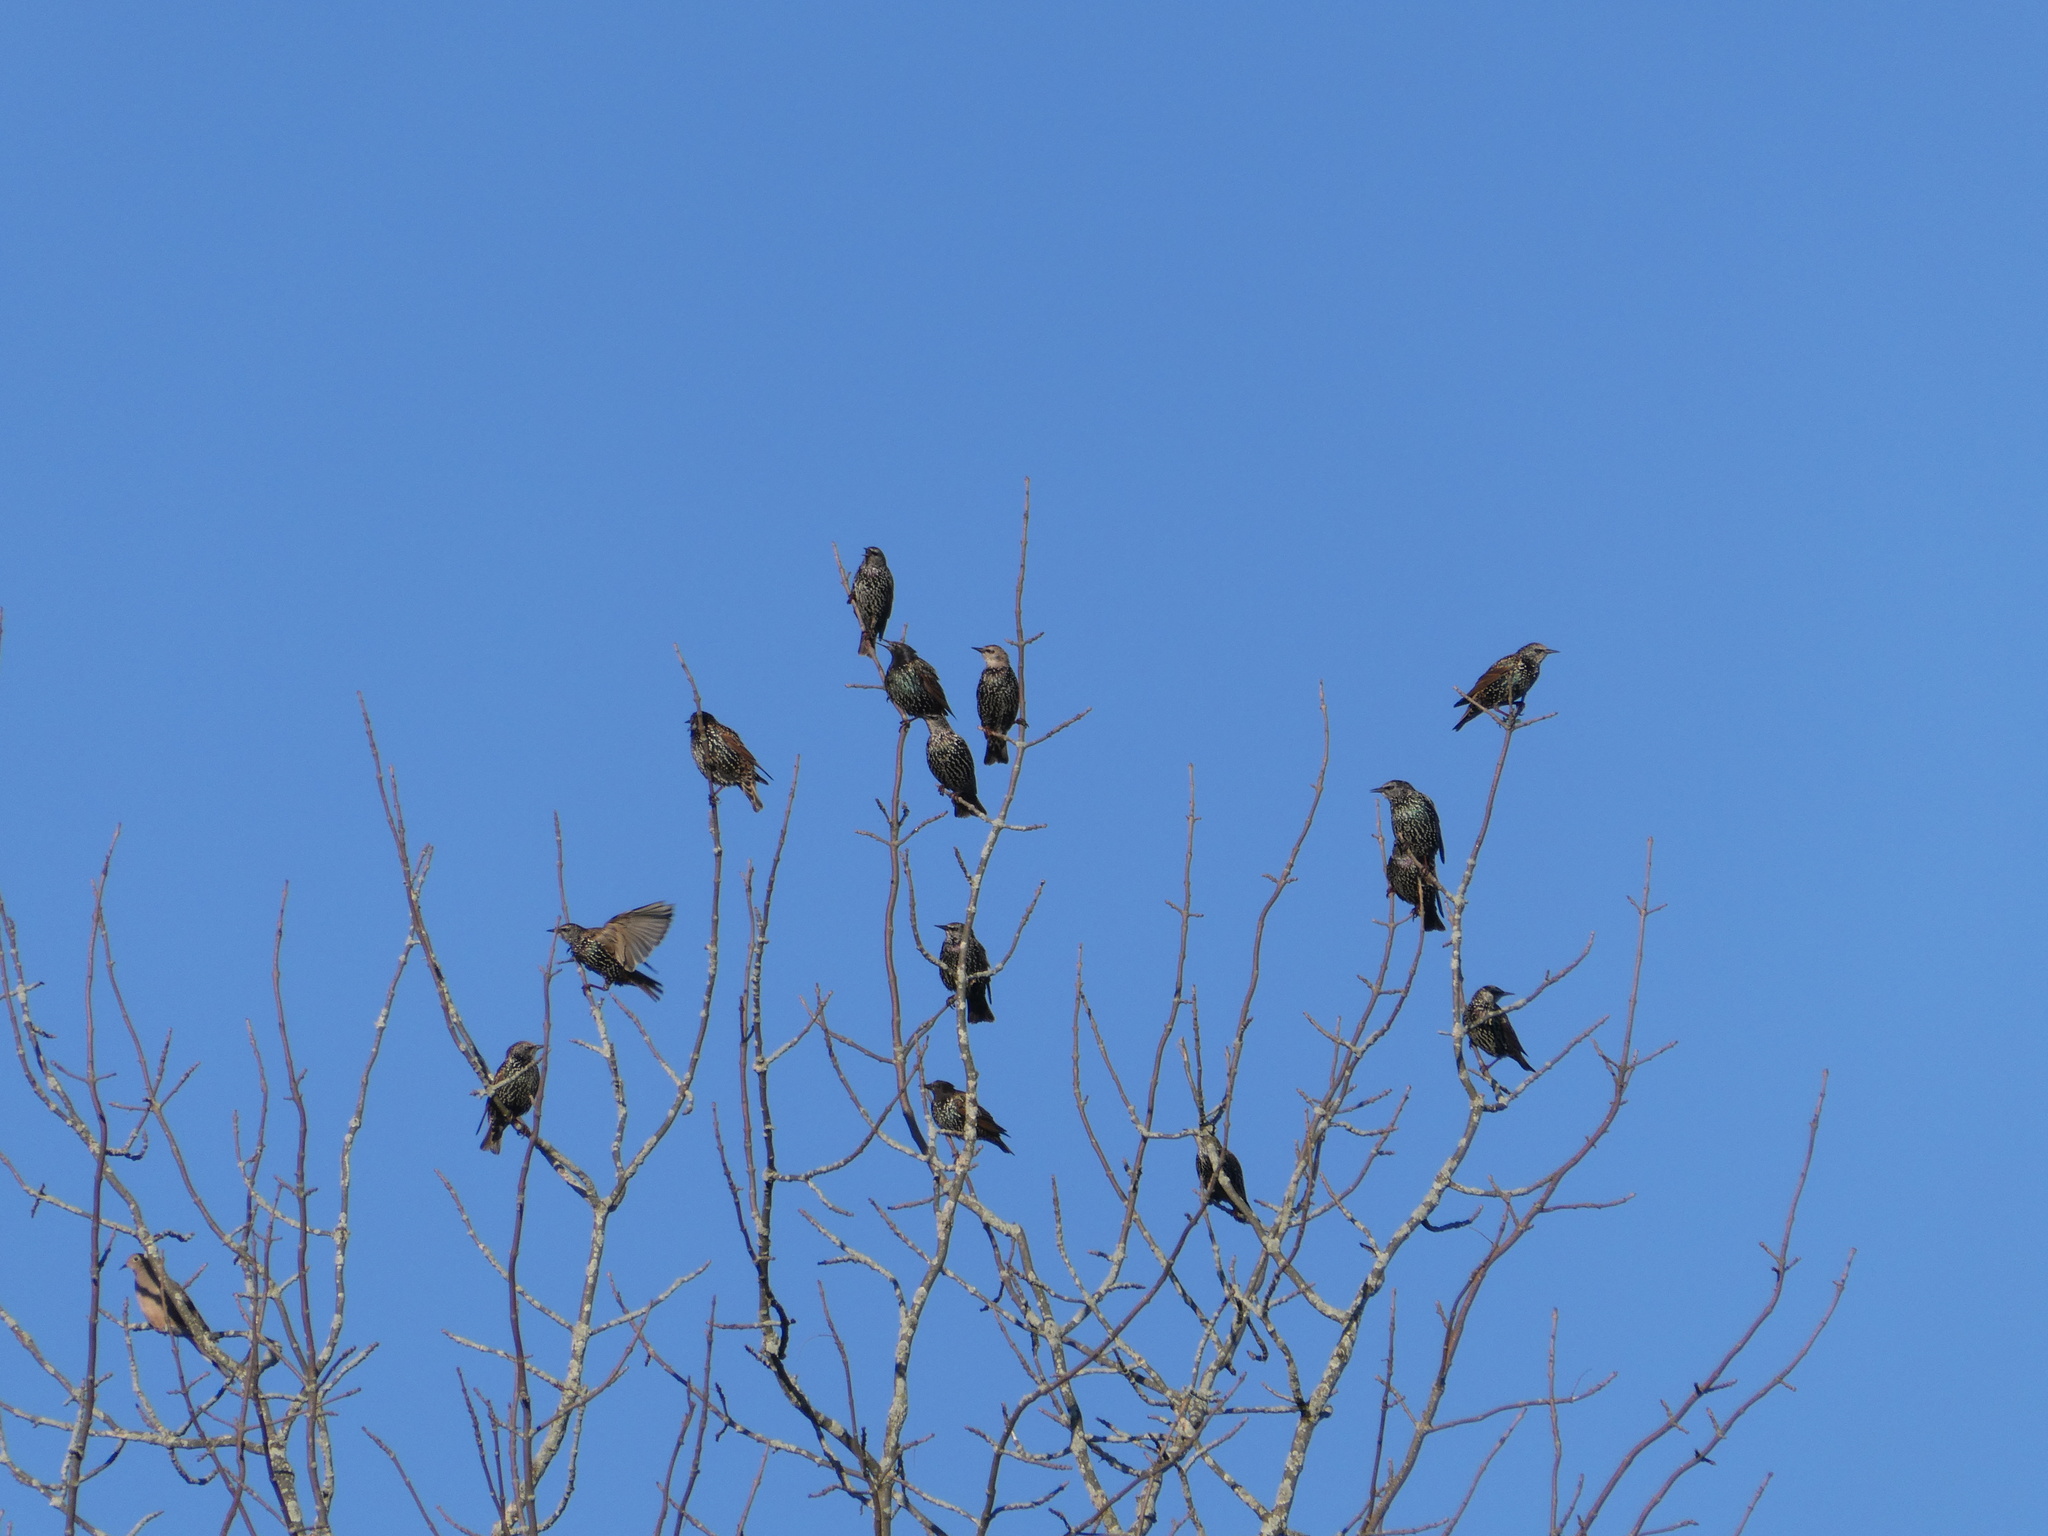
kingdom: Animalia
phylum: Chordata
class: Aves
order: Passeriformes
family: Sturnidae
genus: Sturnus
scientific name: Sturnus vulgaris
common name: Common starling
